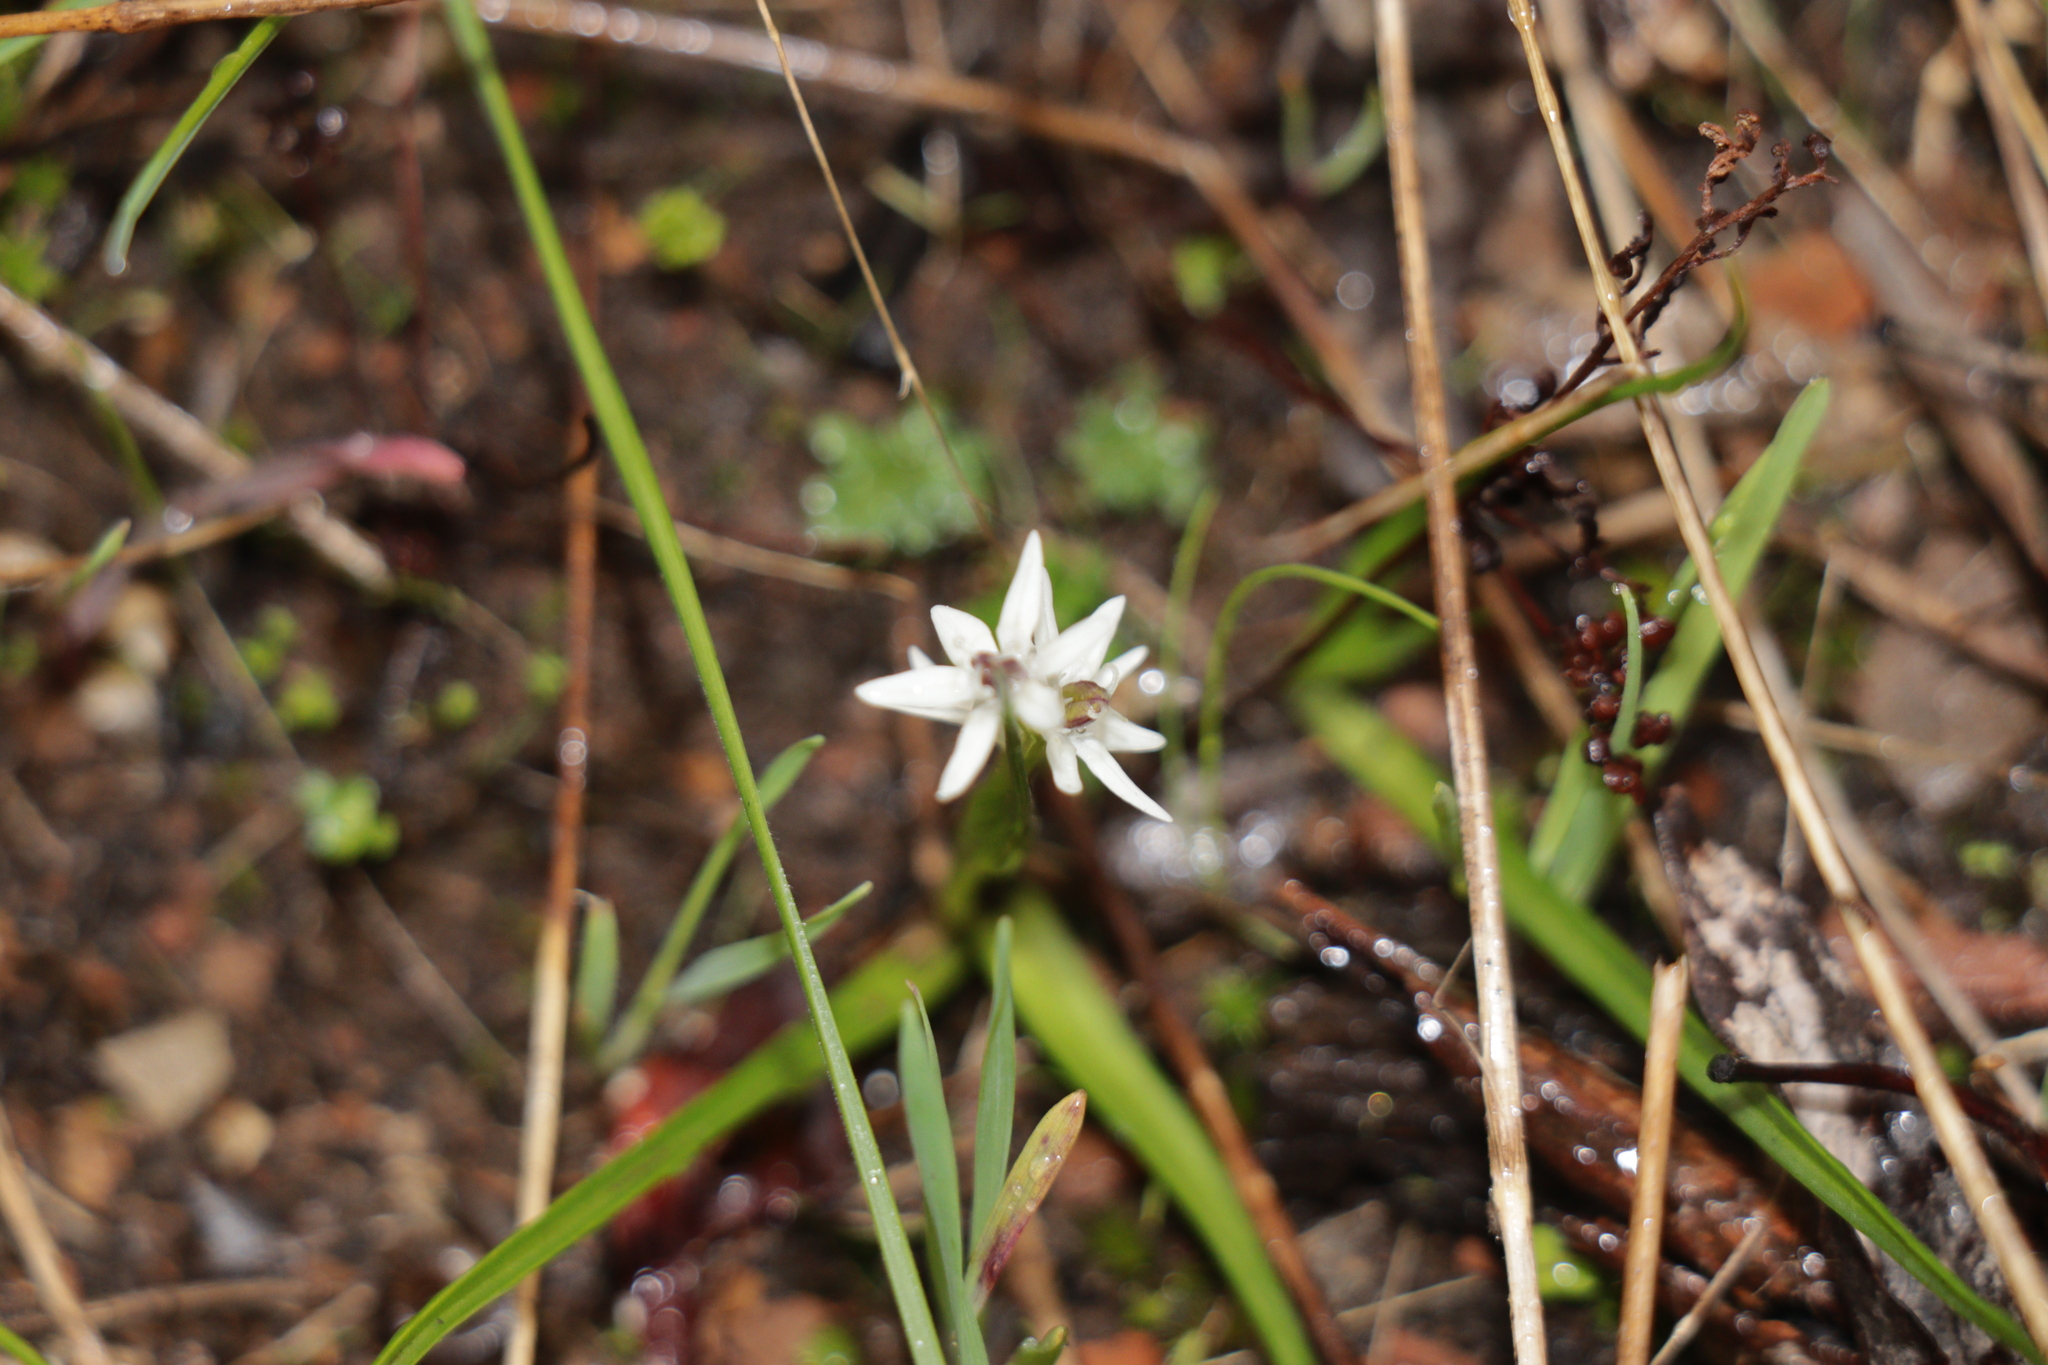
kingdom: Plantae
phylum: Tracheophyta
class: Liliopsida
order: Liliales
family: Colchicaceae
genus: Wurmbea
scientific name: Wurmbea dioica
